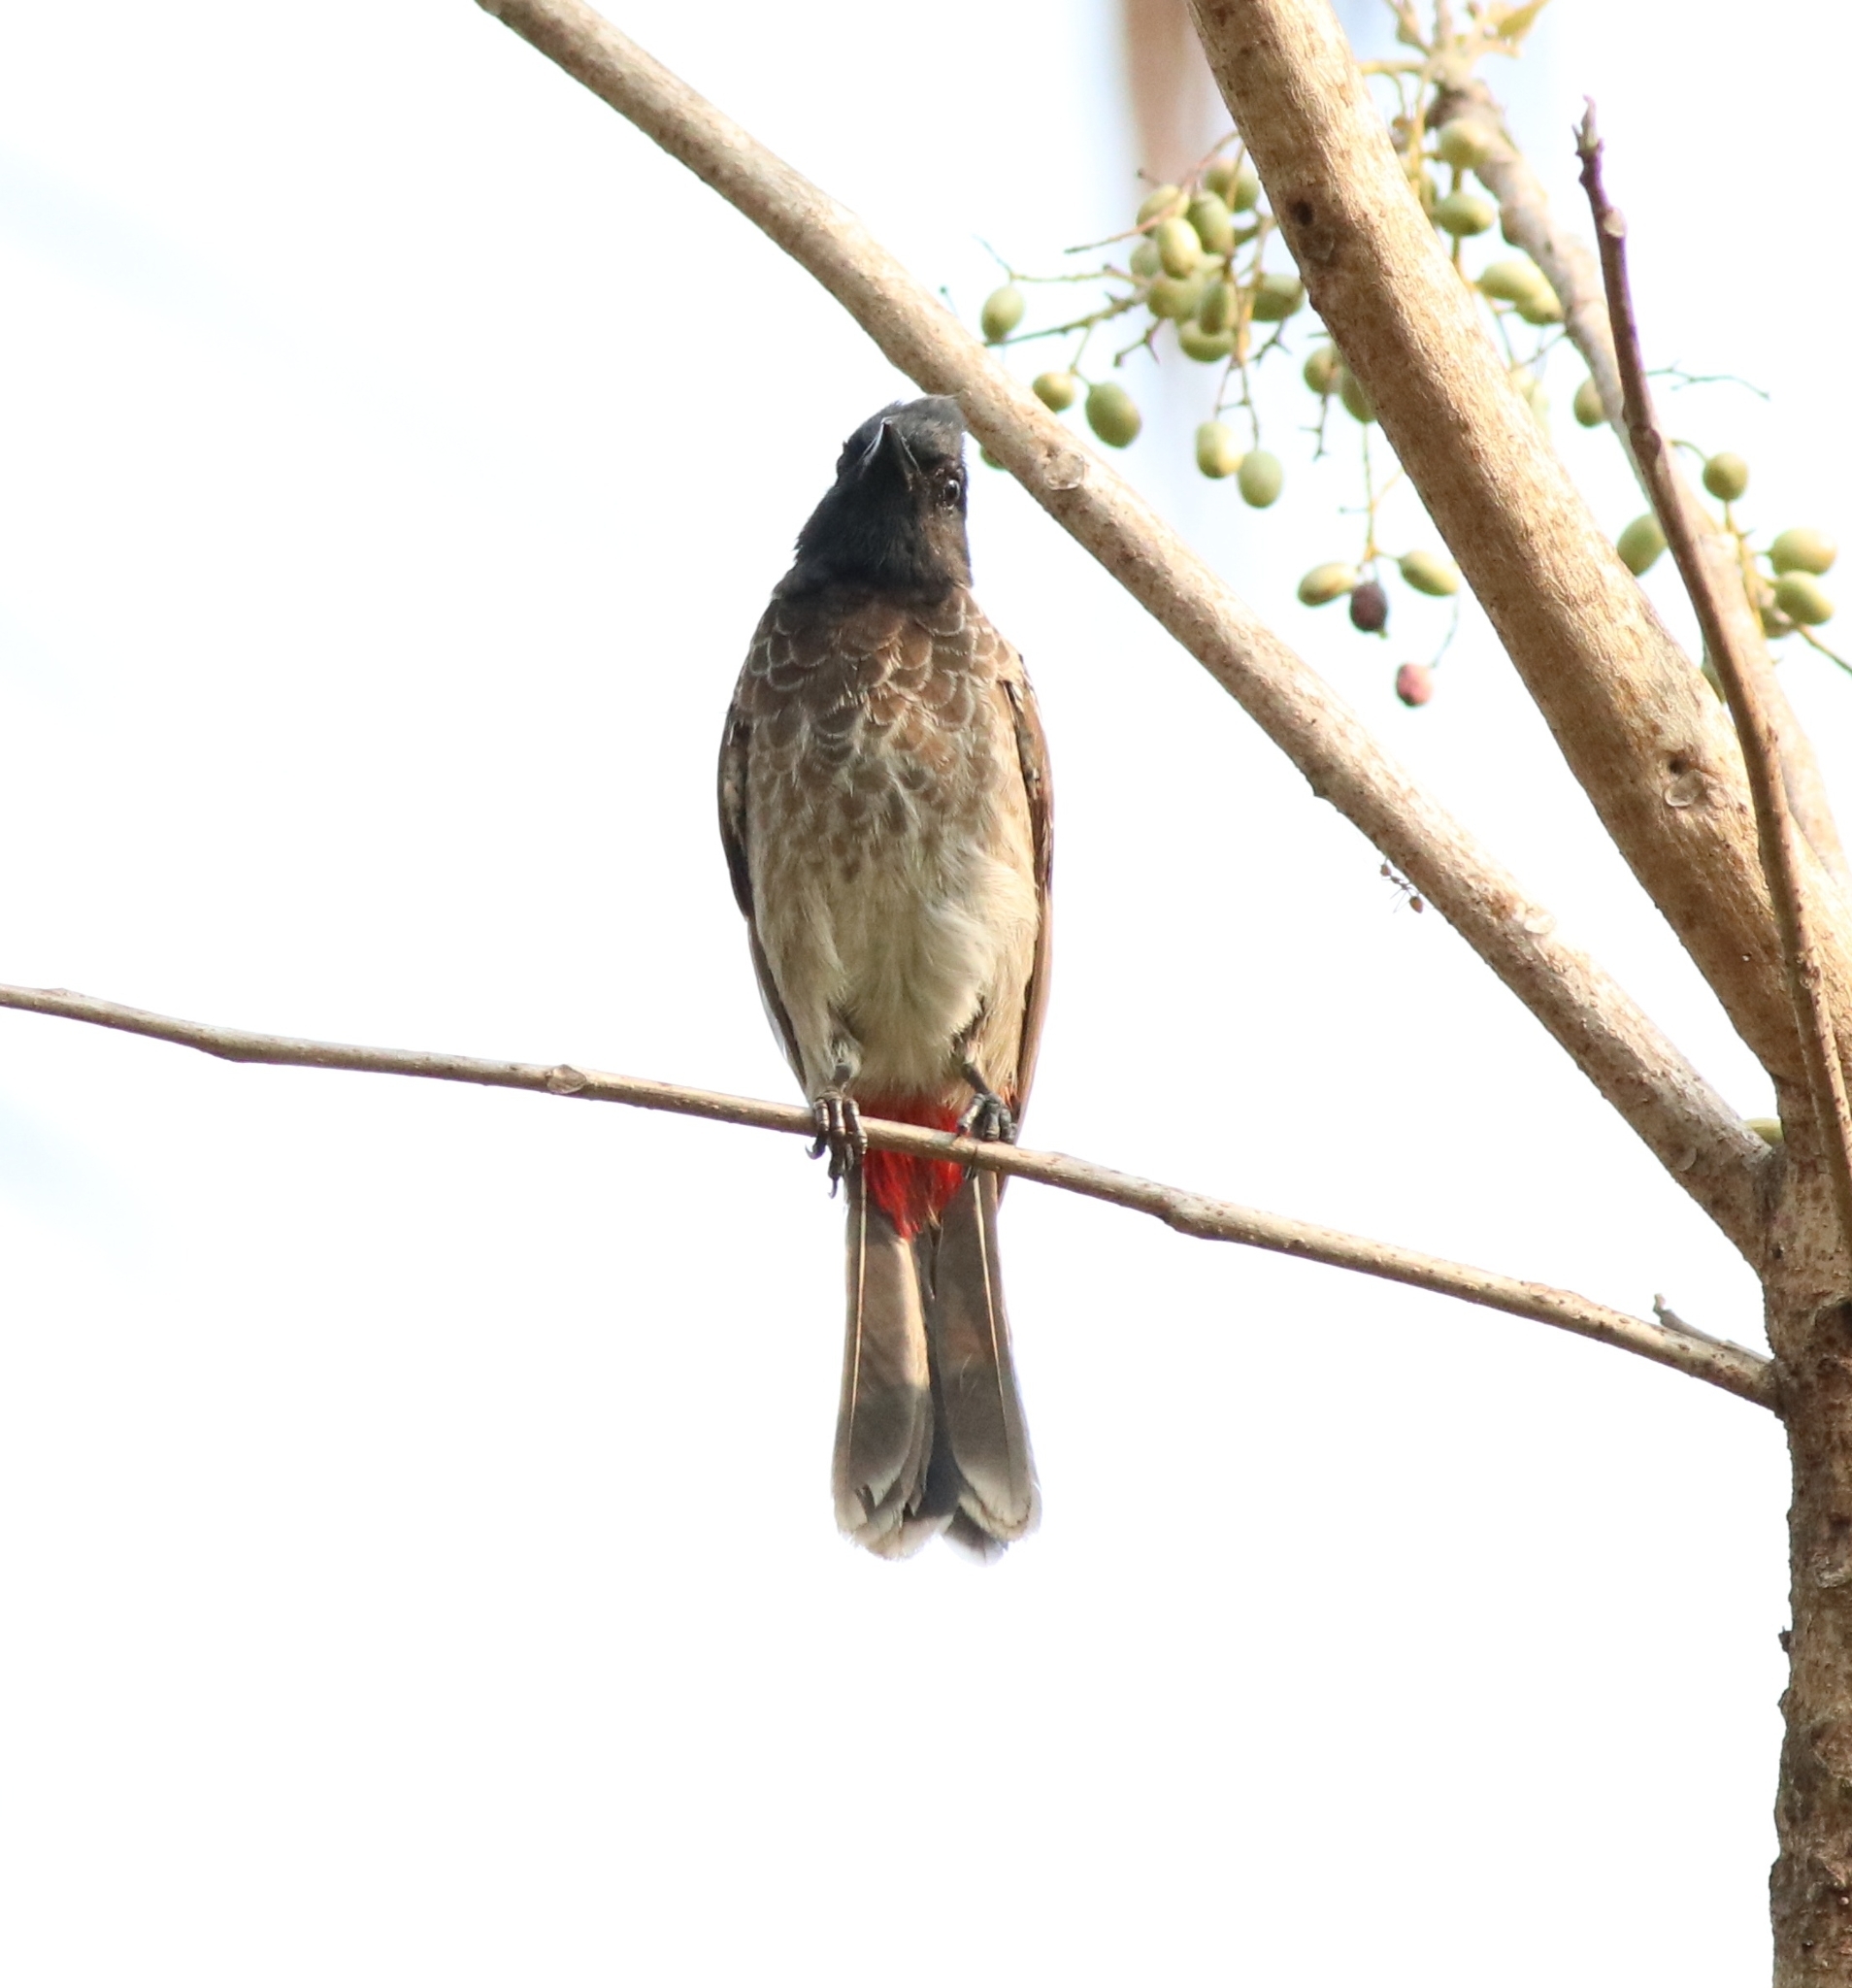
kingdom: Animalia
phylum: Chordata
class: Aves
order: Passeriformes
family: Pycnonotidae
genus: Pycnonotus
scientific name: Pycnonotus cafer
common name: Red-vented bulbul
